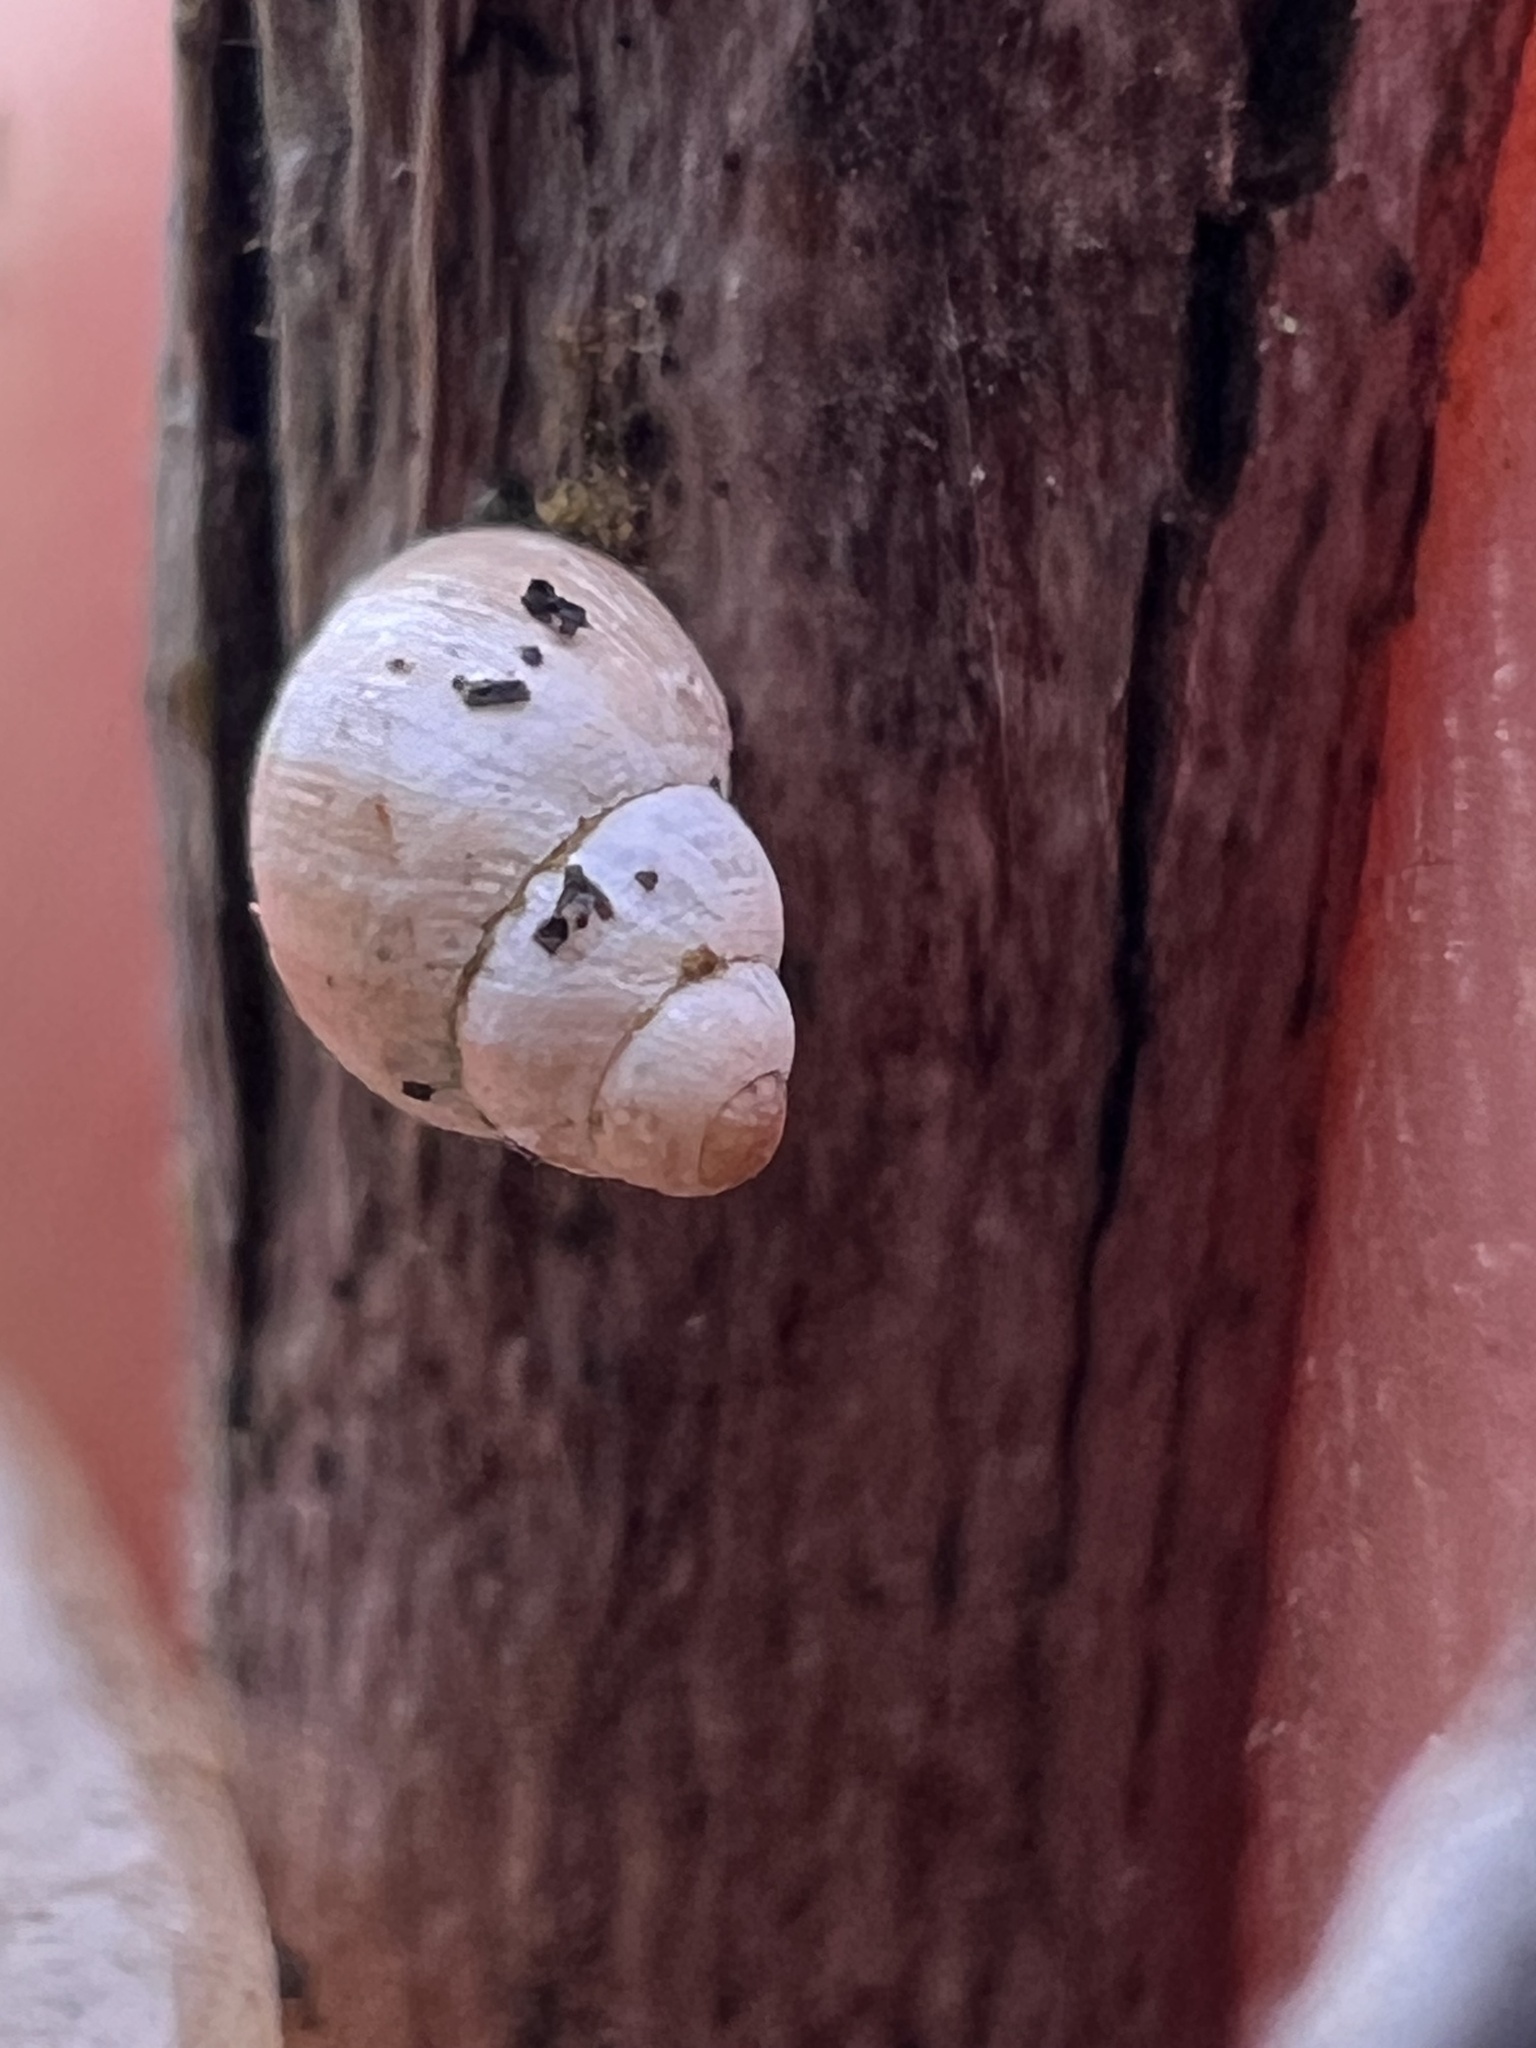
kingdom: Animalia
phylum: Mollusca
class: Gastropoda
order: Stylommatophora
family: Achatinellidae
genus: Tornatellinops
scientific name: Tornatellinops mastersi
